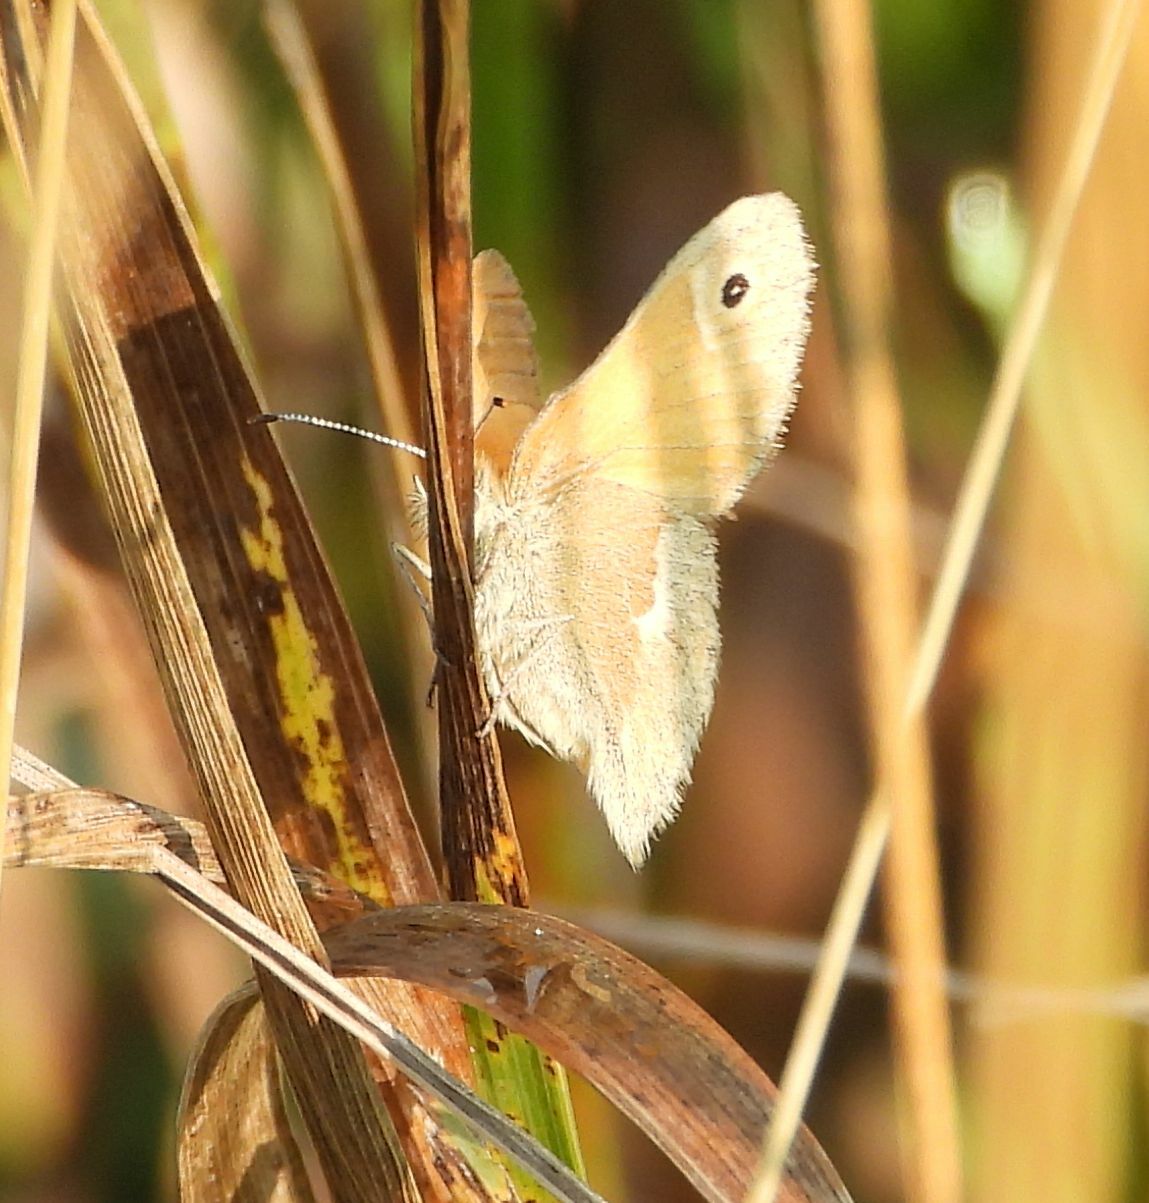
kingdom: Animalia
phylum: Arthropoda
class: Insecta
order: Lepidoptera
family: Nymphalidae
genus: Coenonympha
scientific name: Coenonympha california
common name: Common ringlet
